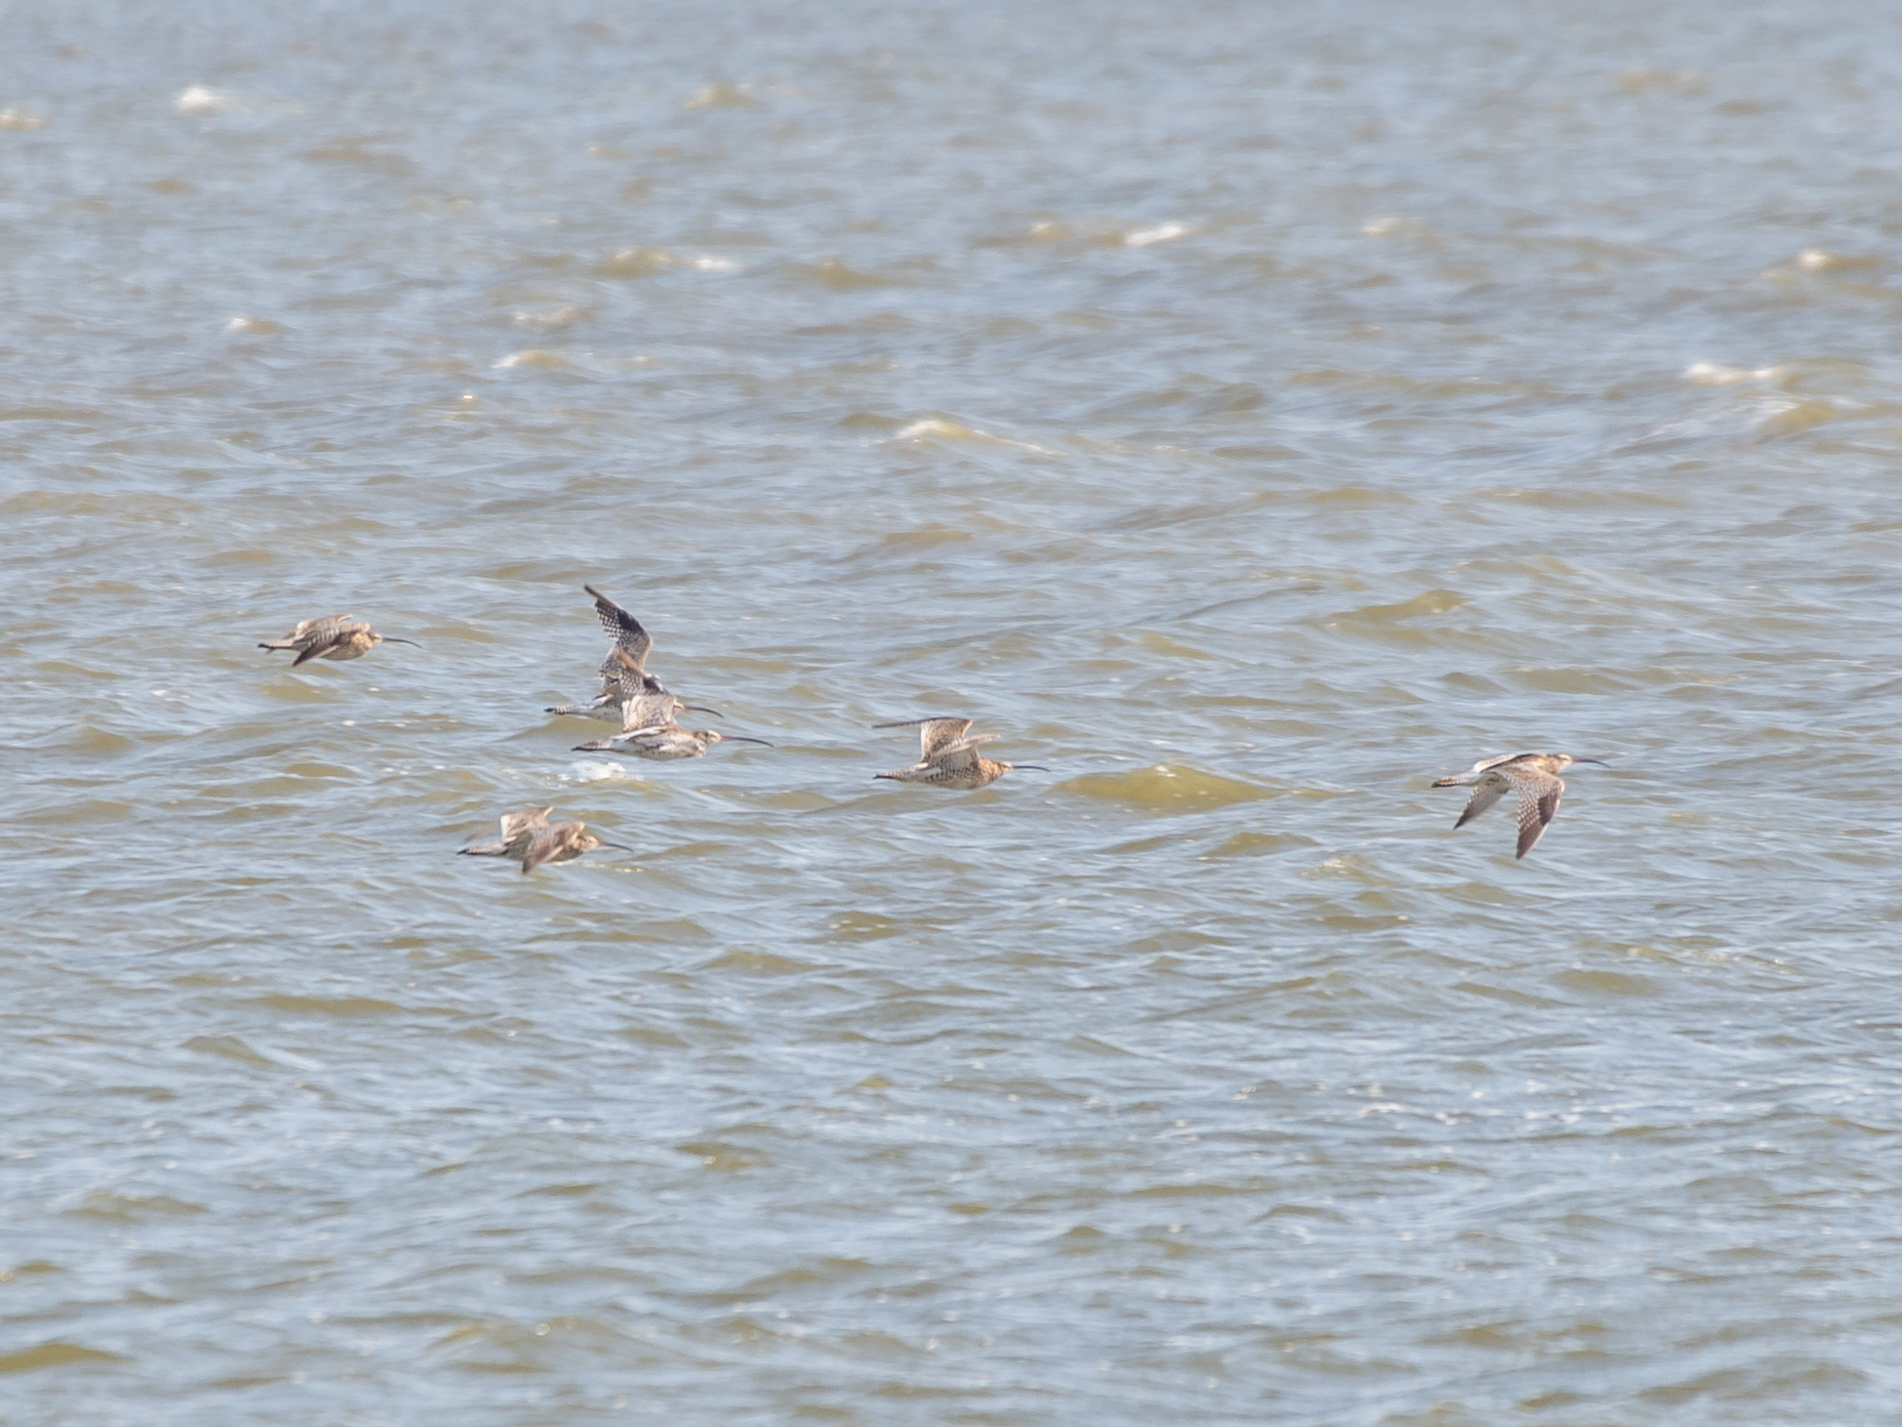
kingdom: Animalia
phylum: Chordata
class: Aves
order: Charadriiformes
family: Scolopacidae
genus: Numenius
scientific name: Numenius arquata
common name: Eurasian curlew
